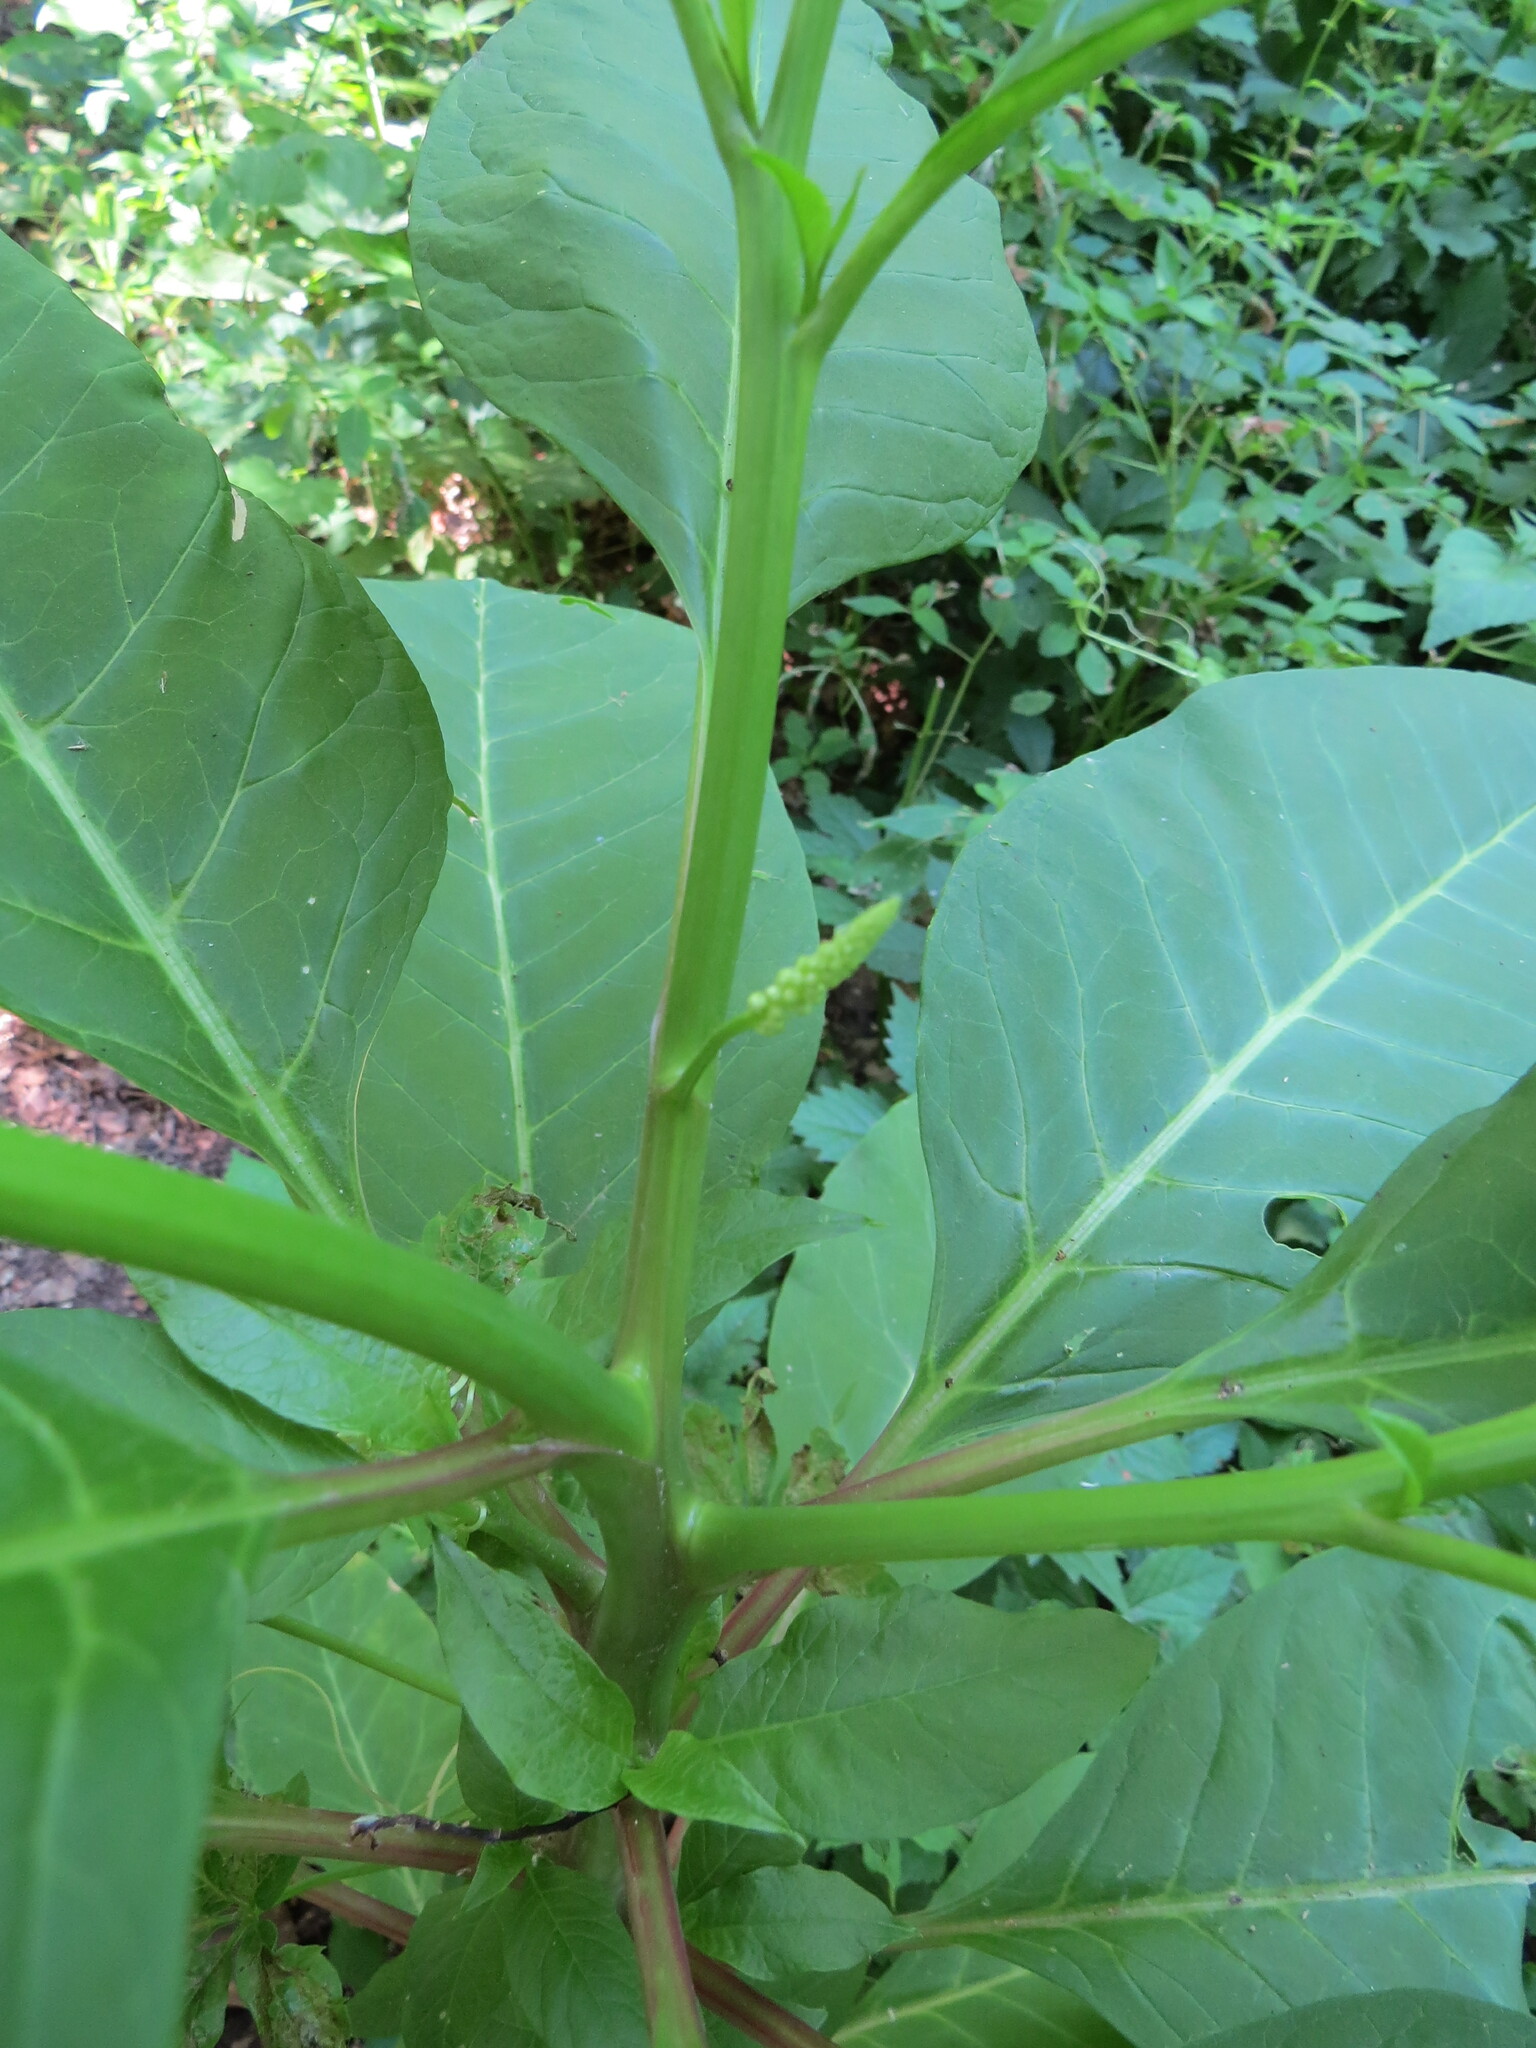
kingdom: Plantae
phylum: Tracheophyta
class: Magnoliopsida
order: Caryophyllales
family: Phytolaccaceae
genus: Phytolacca
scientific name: Phytolacca americana
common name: American pokeweed
